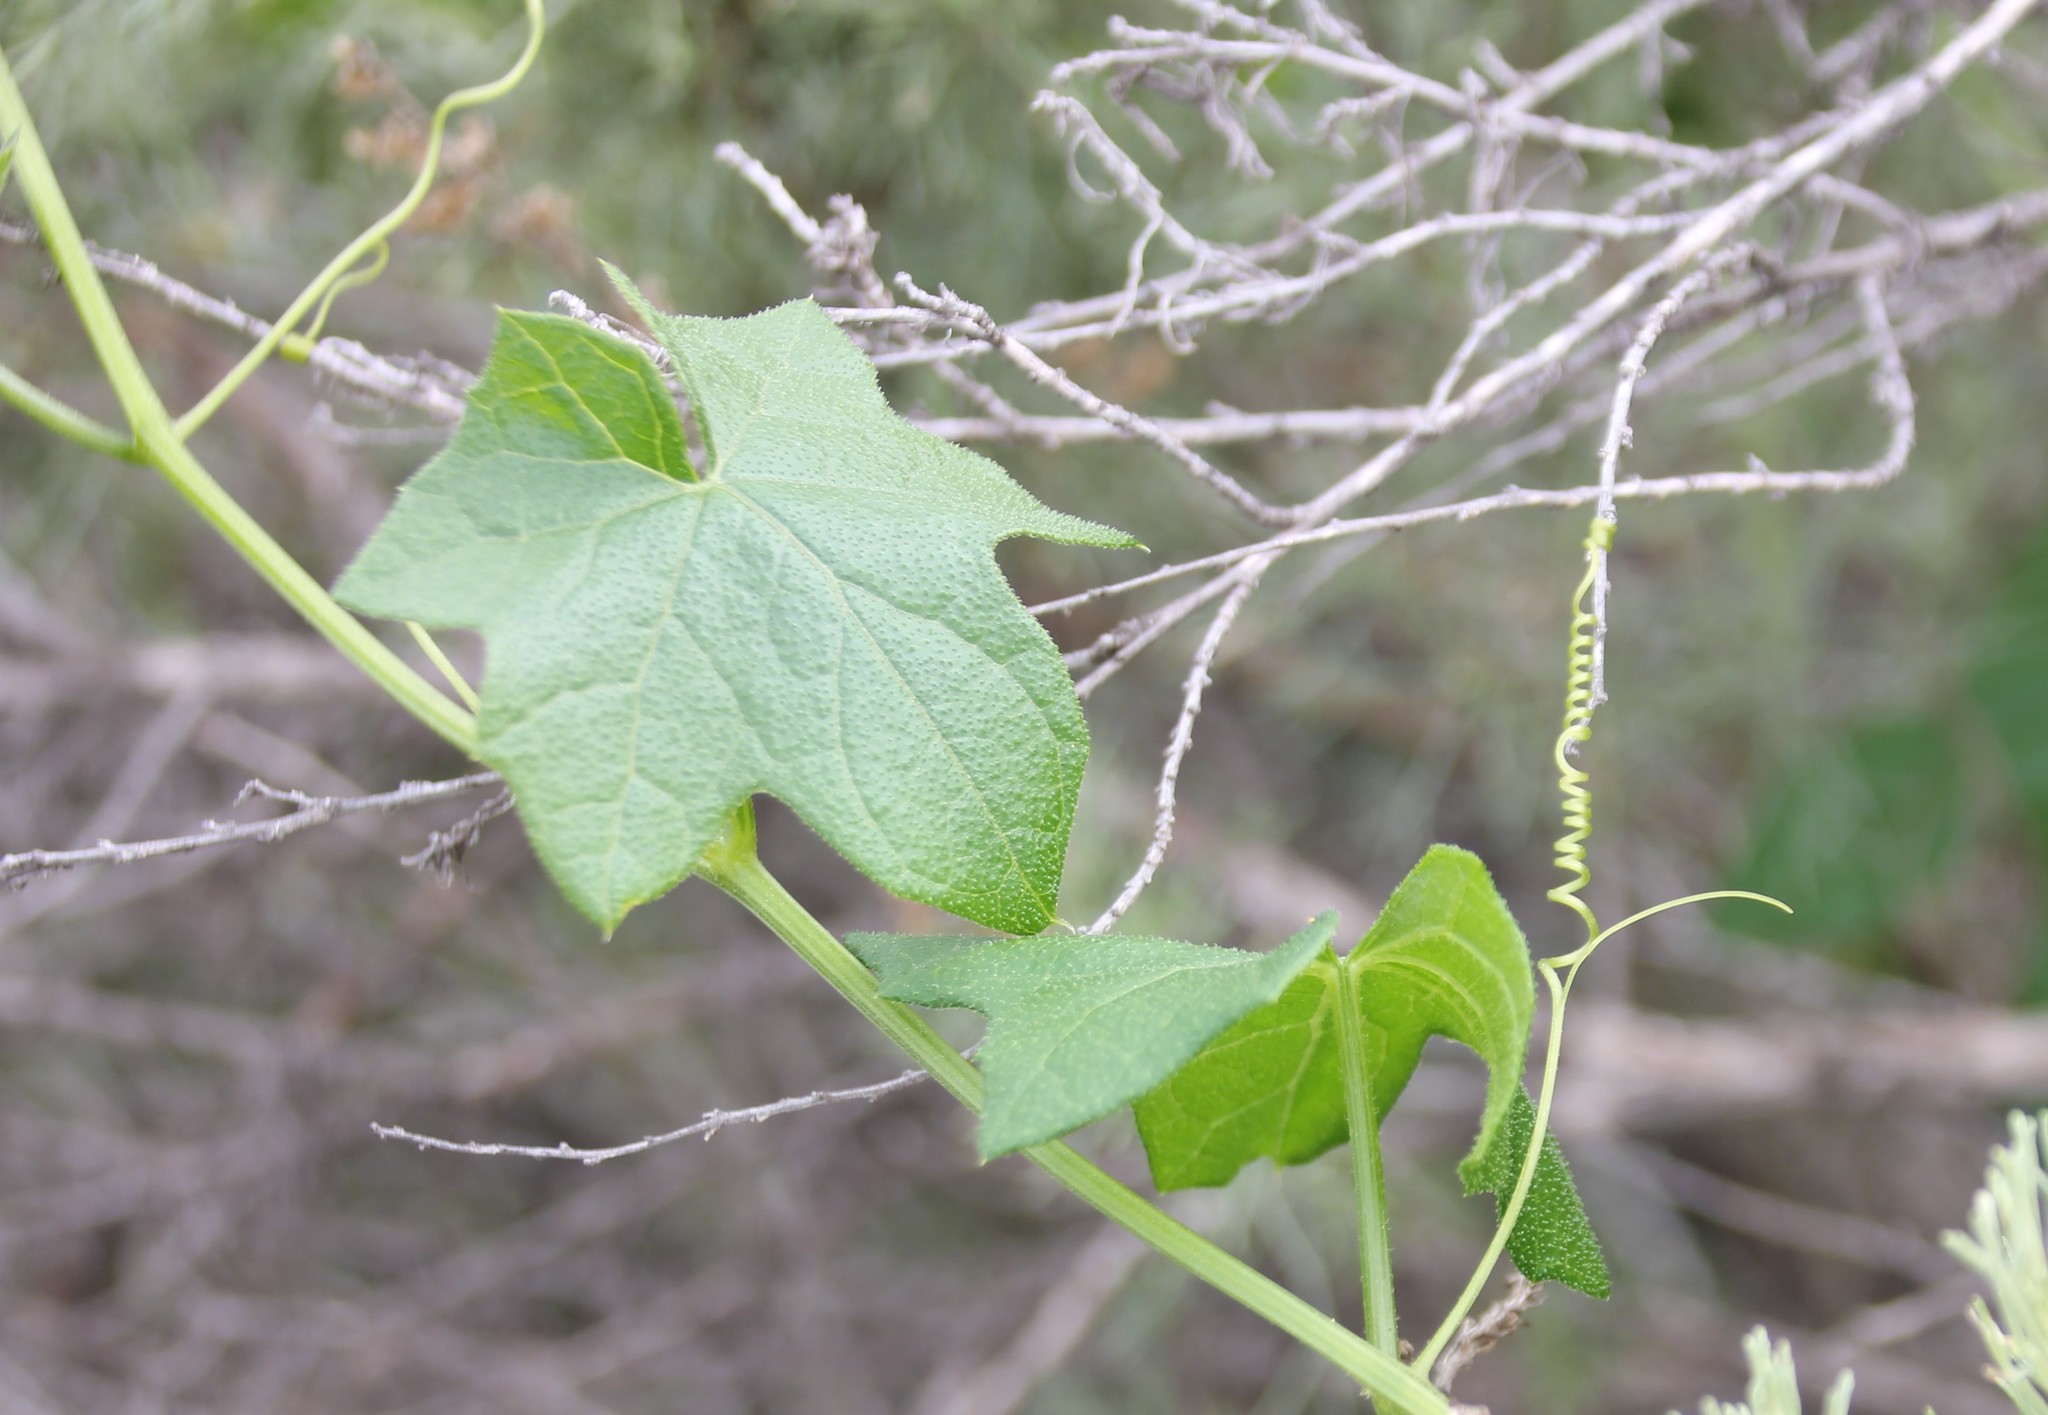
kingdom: Plantae
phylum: Tracheophyta
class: Magnoliopsida
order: Cucurbitales
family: Cucurbitaceae
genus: Marah
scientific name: Marah macrocarpa
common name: Cucamonga manroot
